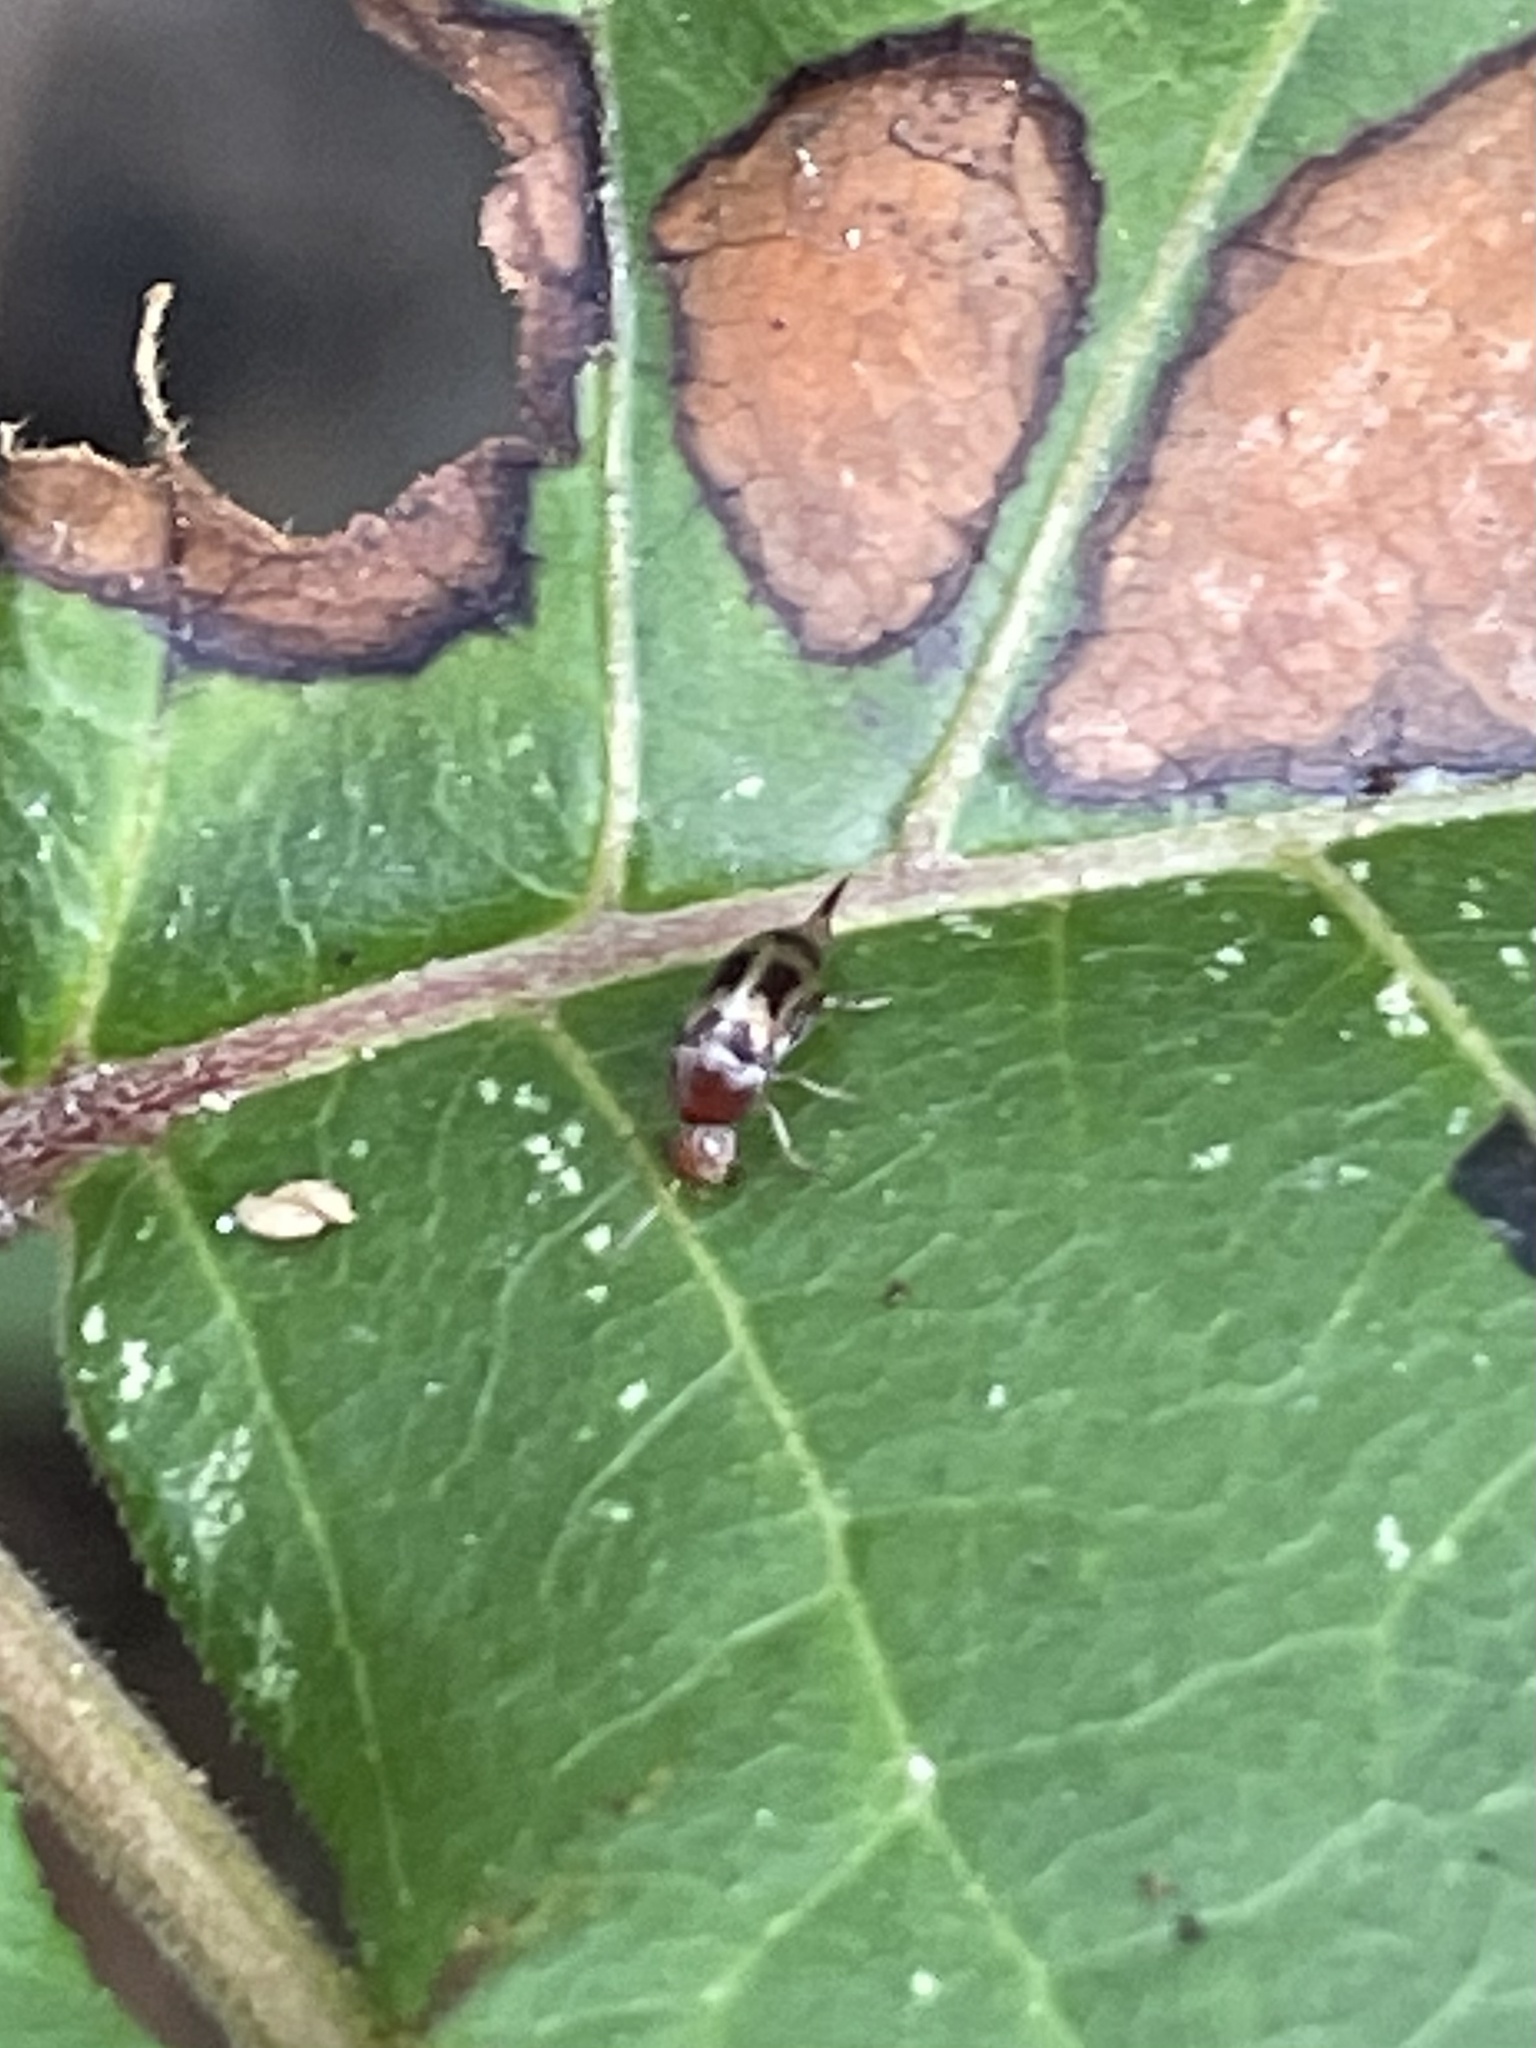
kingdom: Animalia
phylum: Arthropoda
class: Insecta
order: Coleoptera
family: Mordellidae
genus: Falsomordellistena
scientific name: Falsomordellistena hebraica
